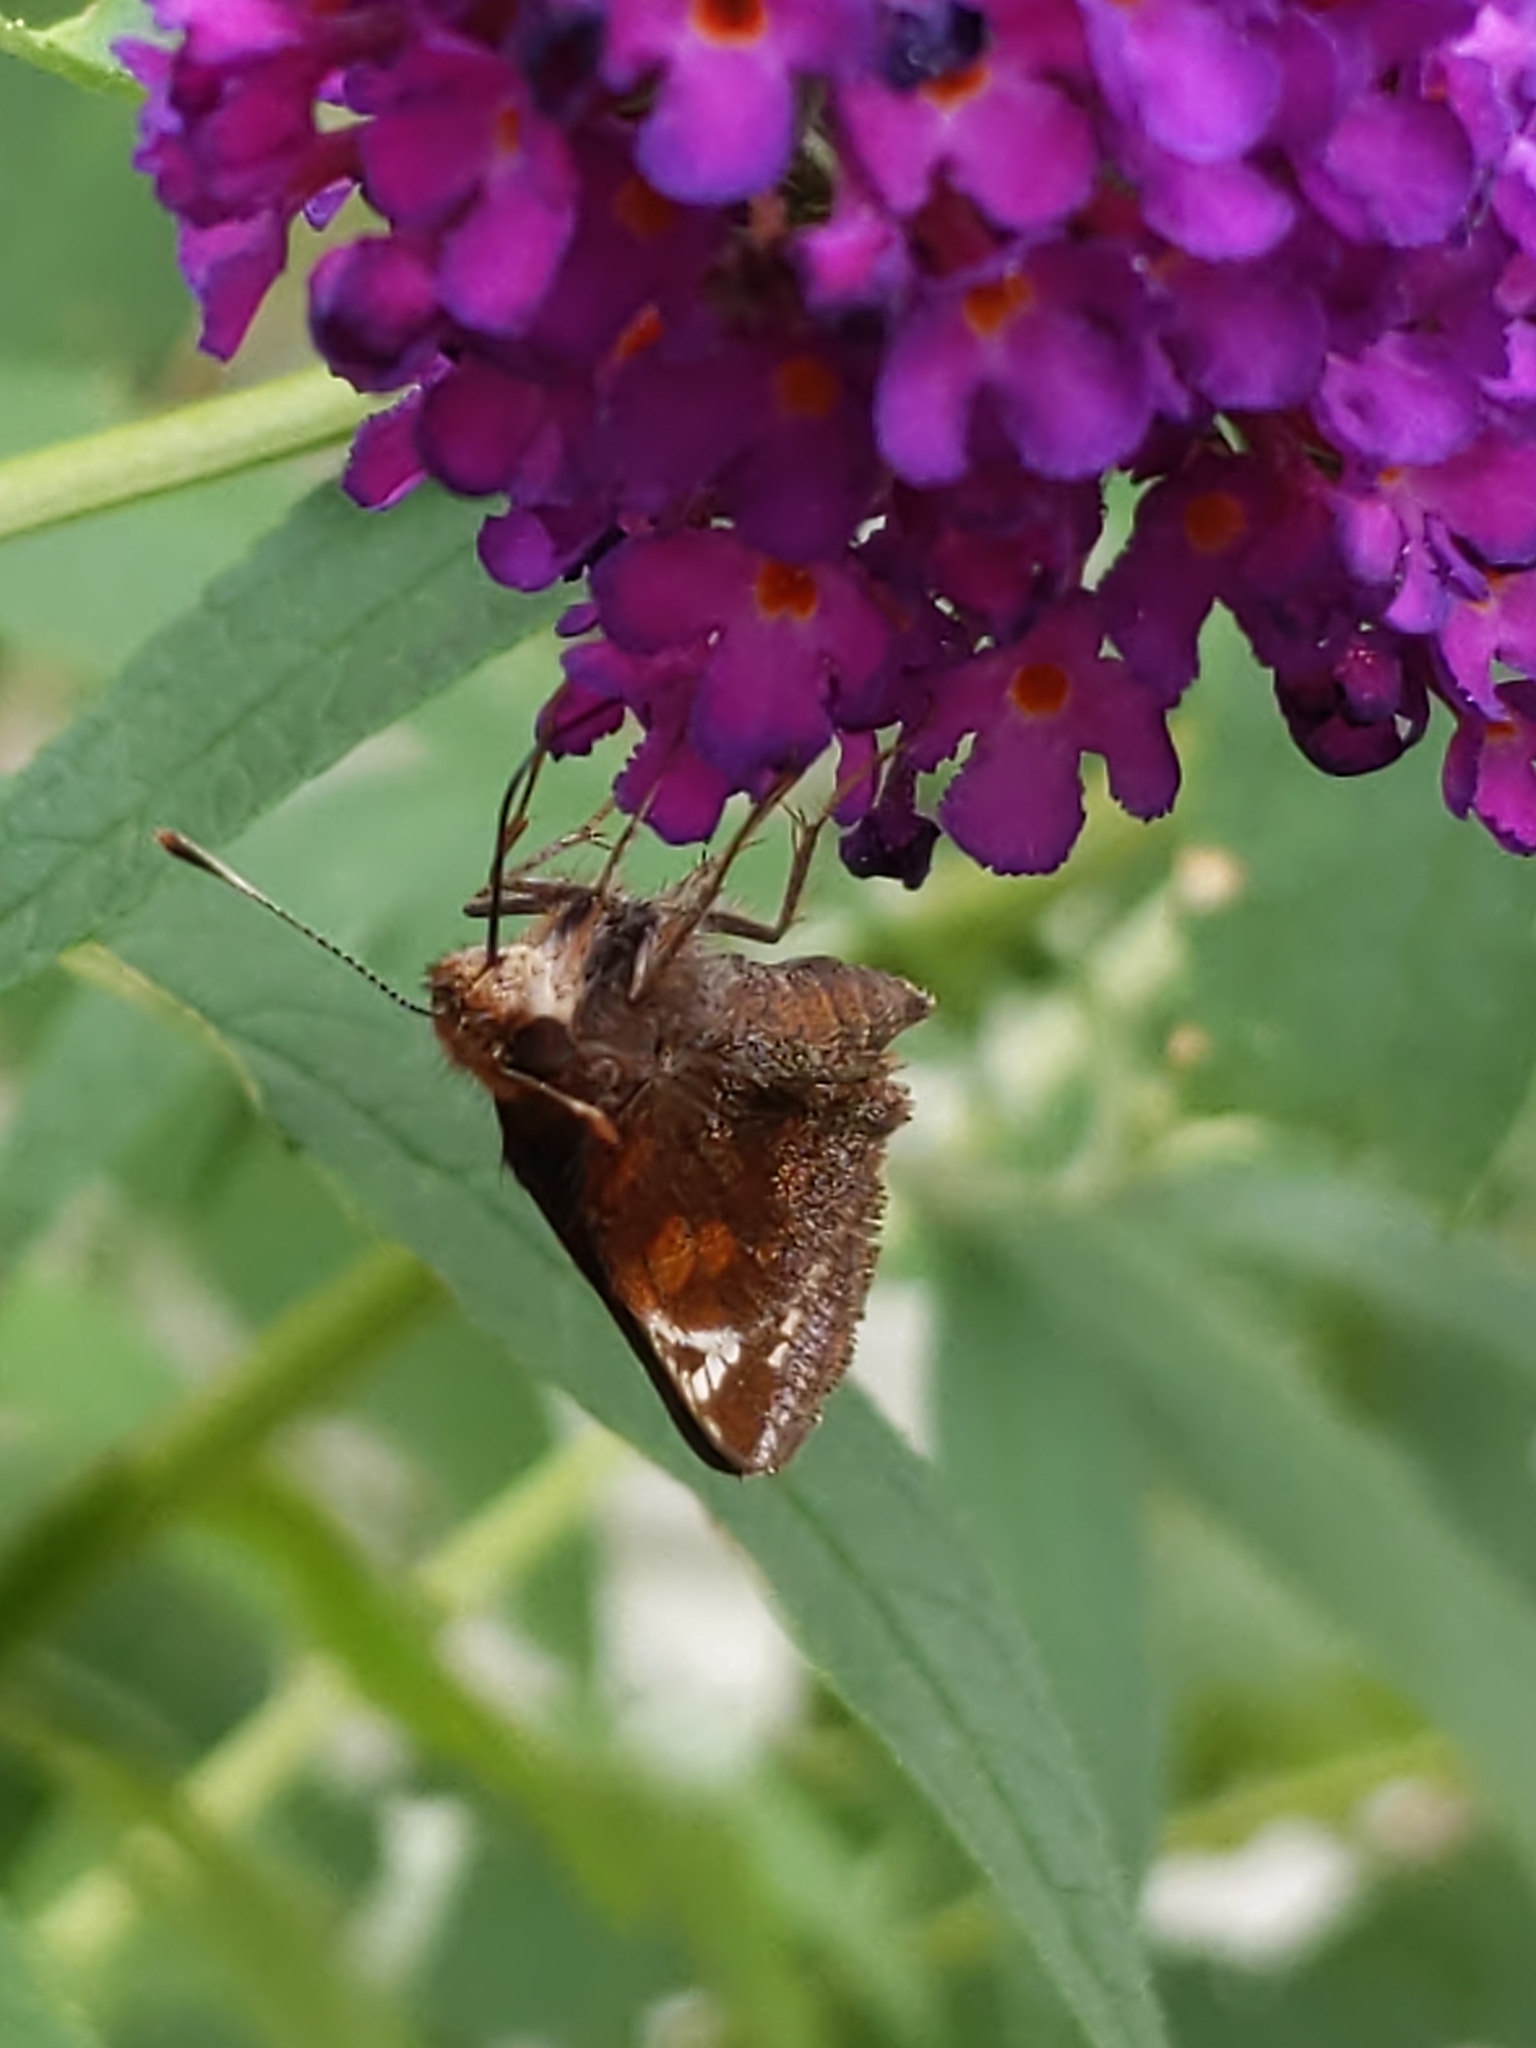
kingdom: Animalia
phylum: Arthropoda
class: Insecta
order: Lepidoptera
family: Hesperiidae
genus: Lon
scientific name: Lon zabulon
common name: Zabulon skipper
